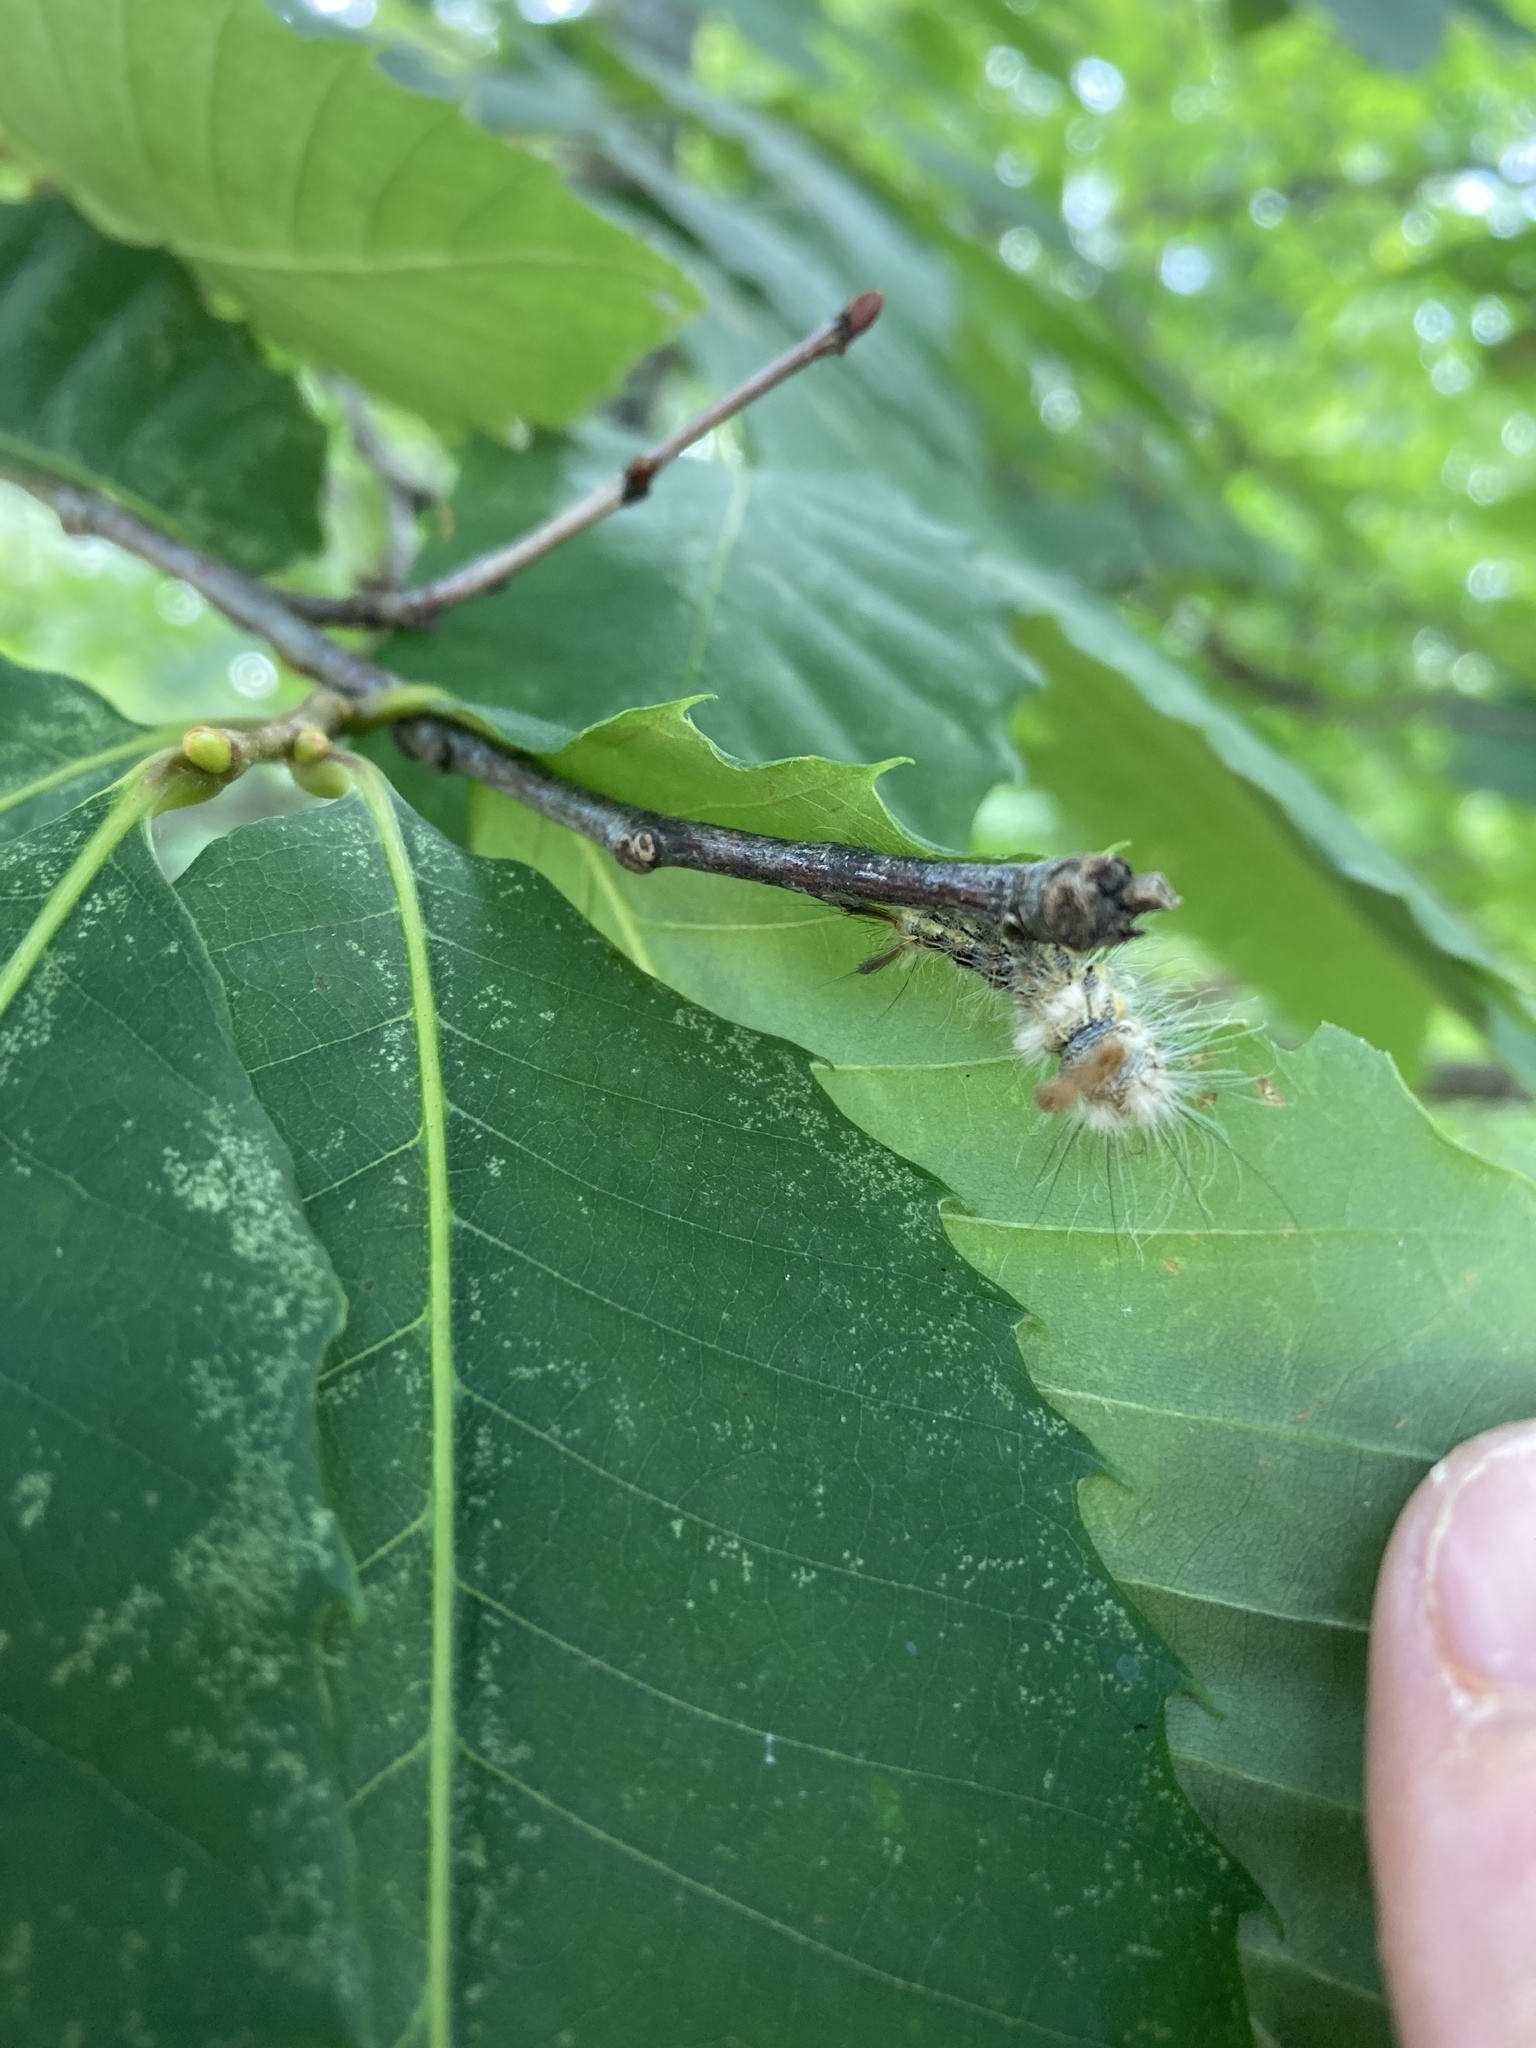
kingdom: Animalia
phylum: Arthropoda
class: Insecta
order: Lepidoptera
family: Noctuidae
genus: Acronicta
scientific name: Acronicta impleta
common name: Powdered dagger
